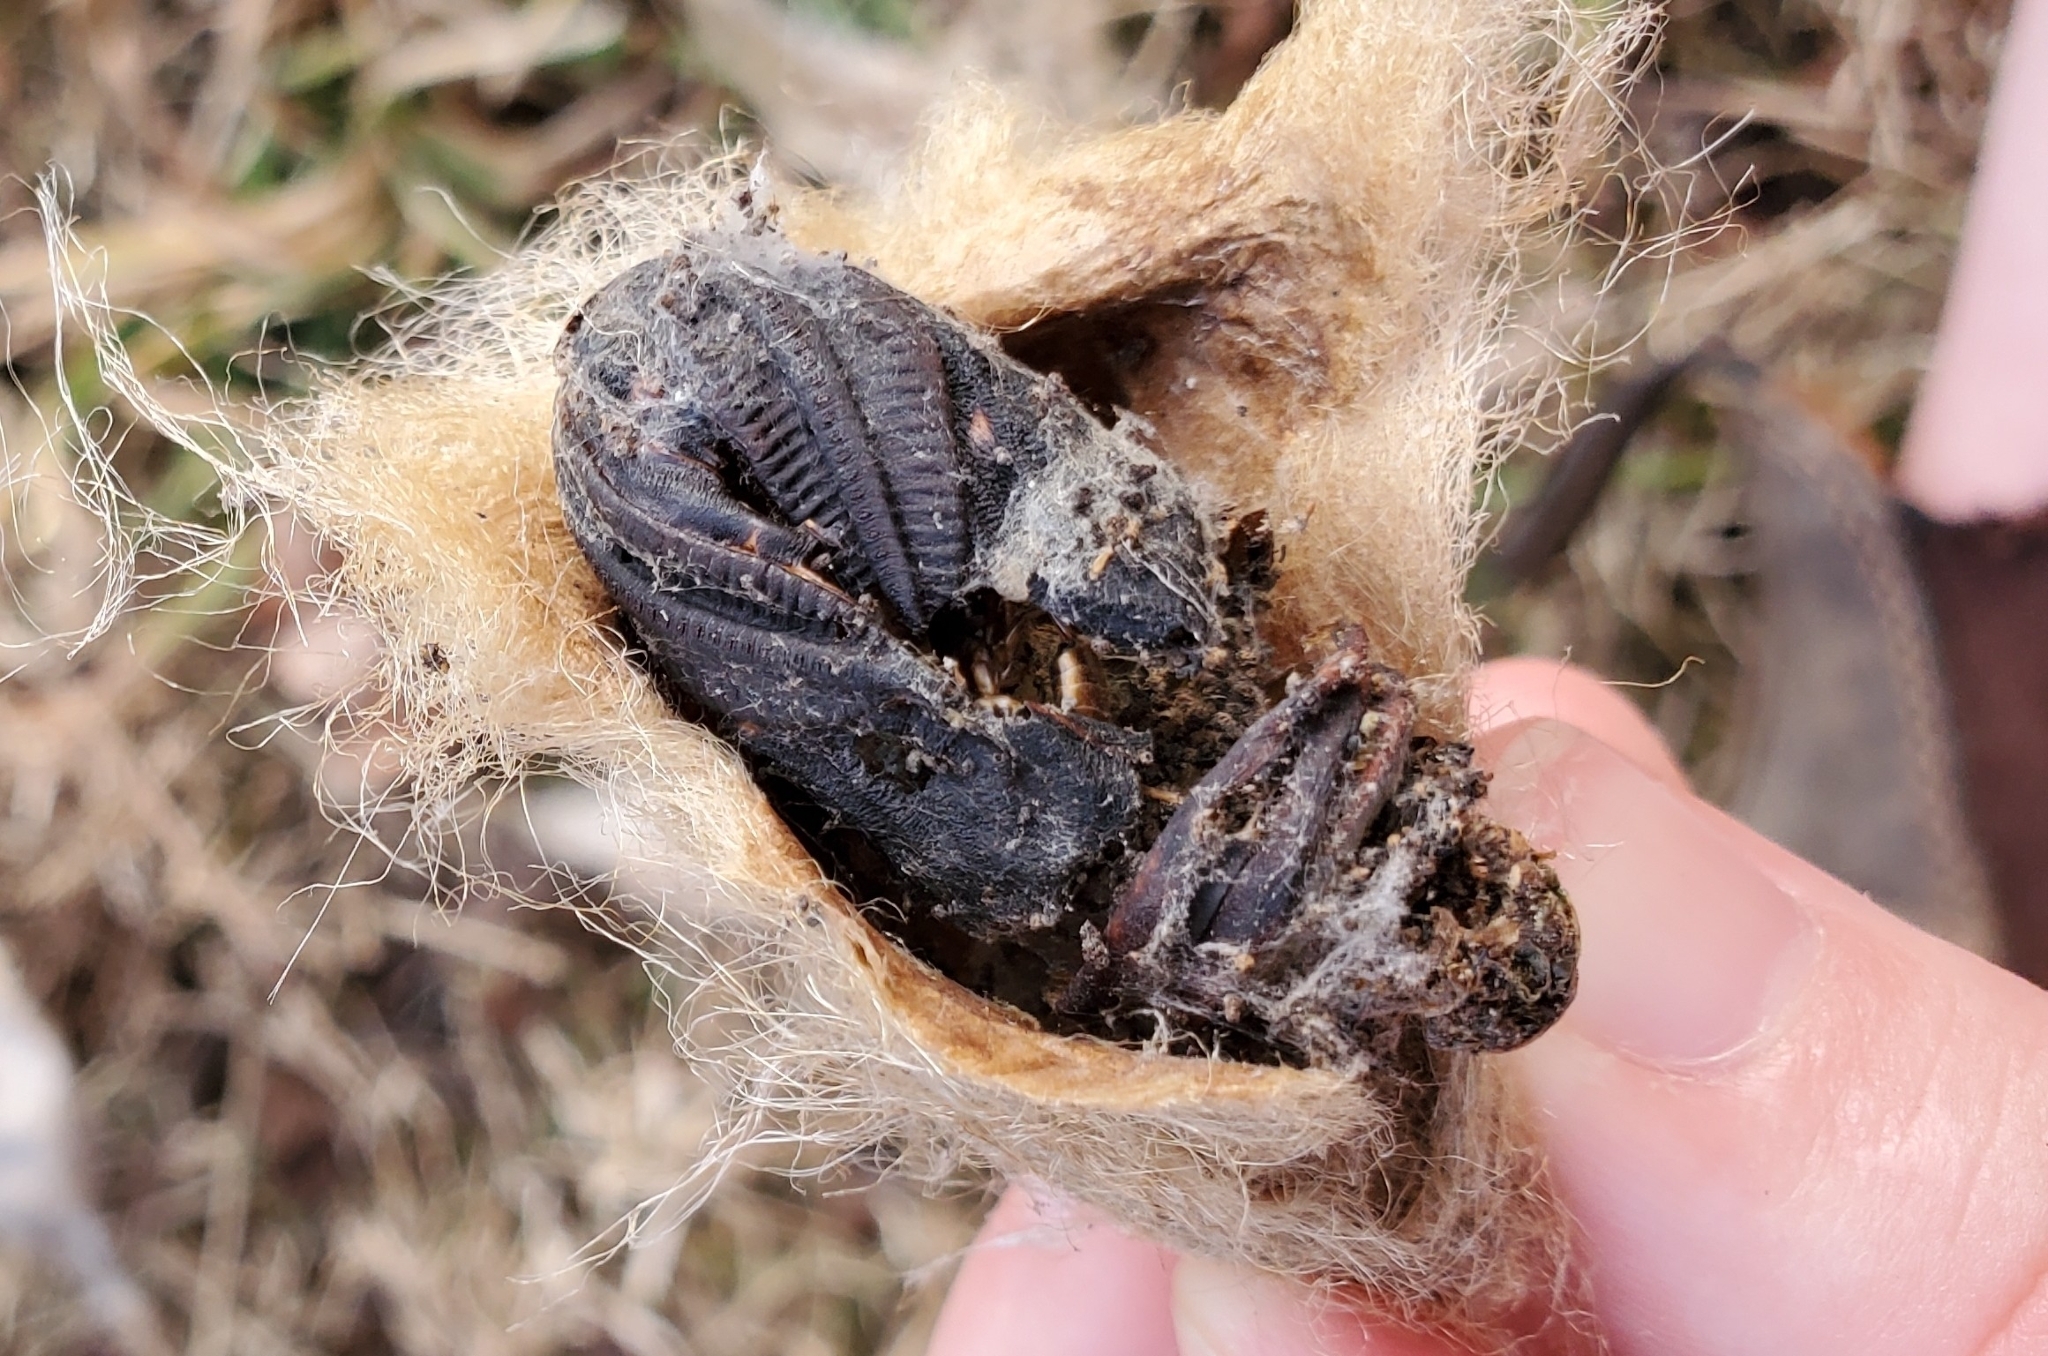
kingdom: Animalia
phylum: Arthropoda
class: Insecta
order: Lepidoptera
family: Saturniidae
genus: Hyalophora
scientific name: Hyalophora cecropia
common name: Cecropia silkmoth
